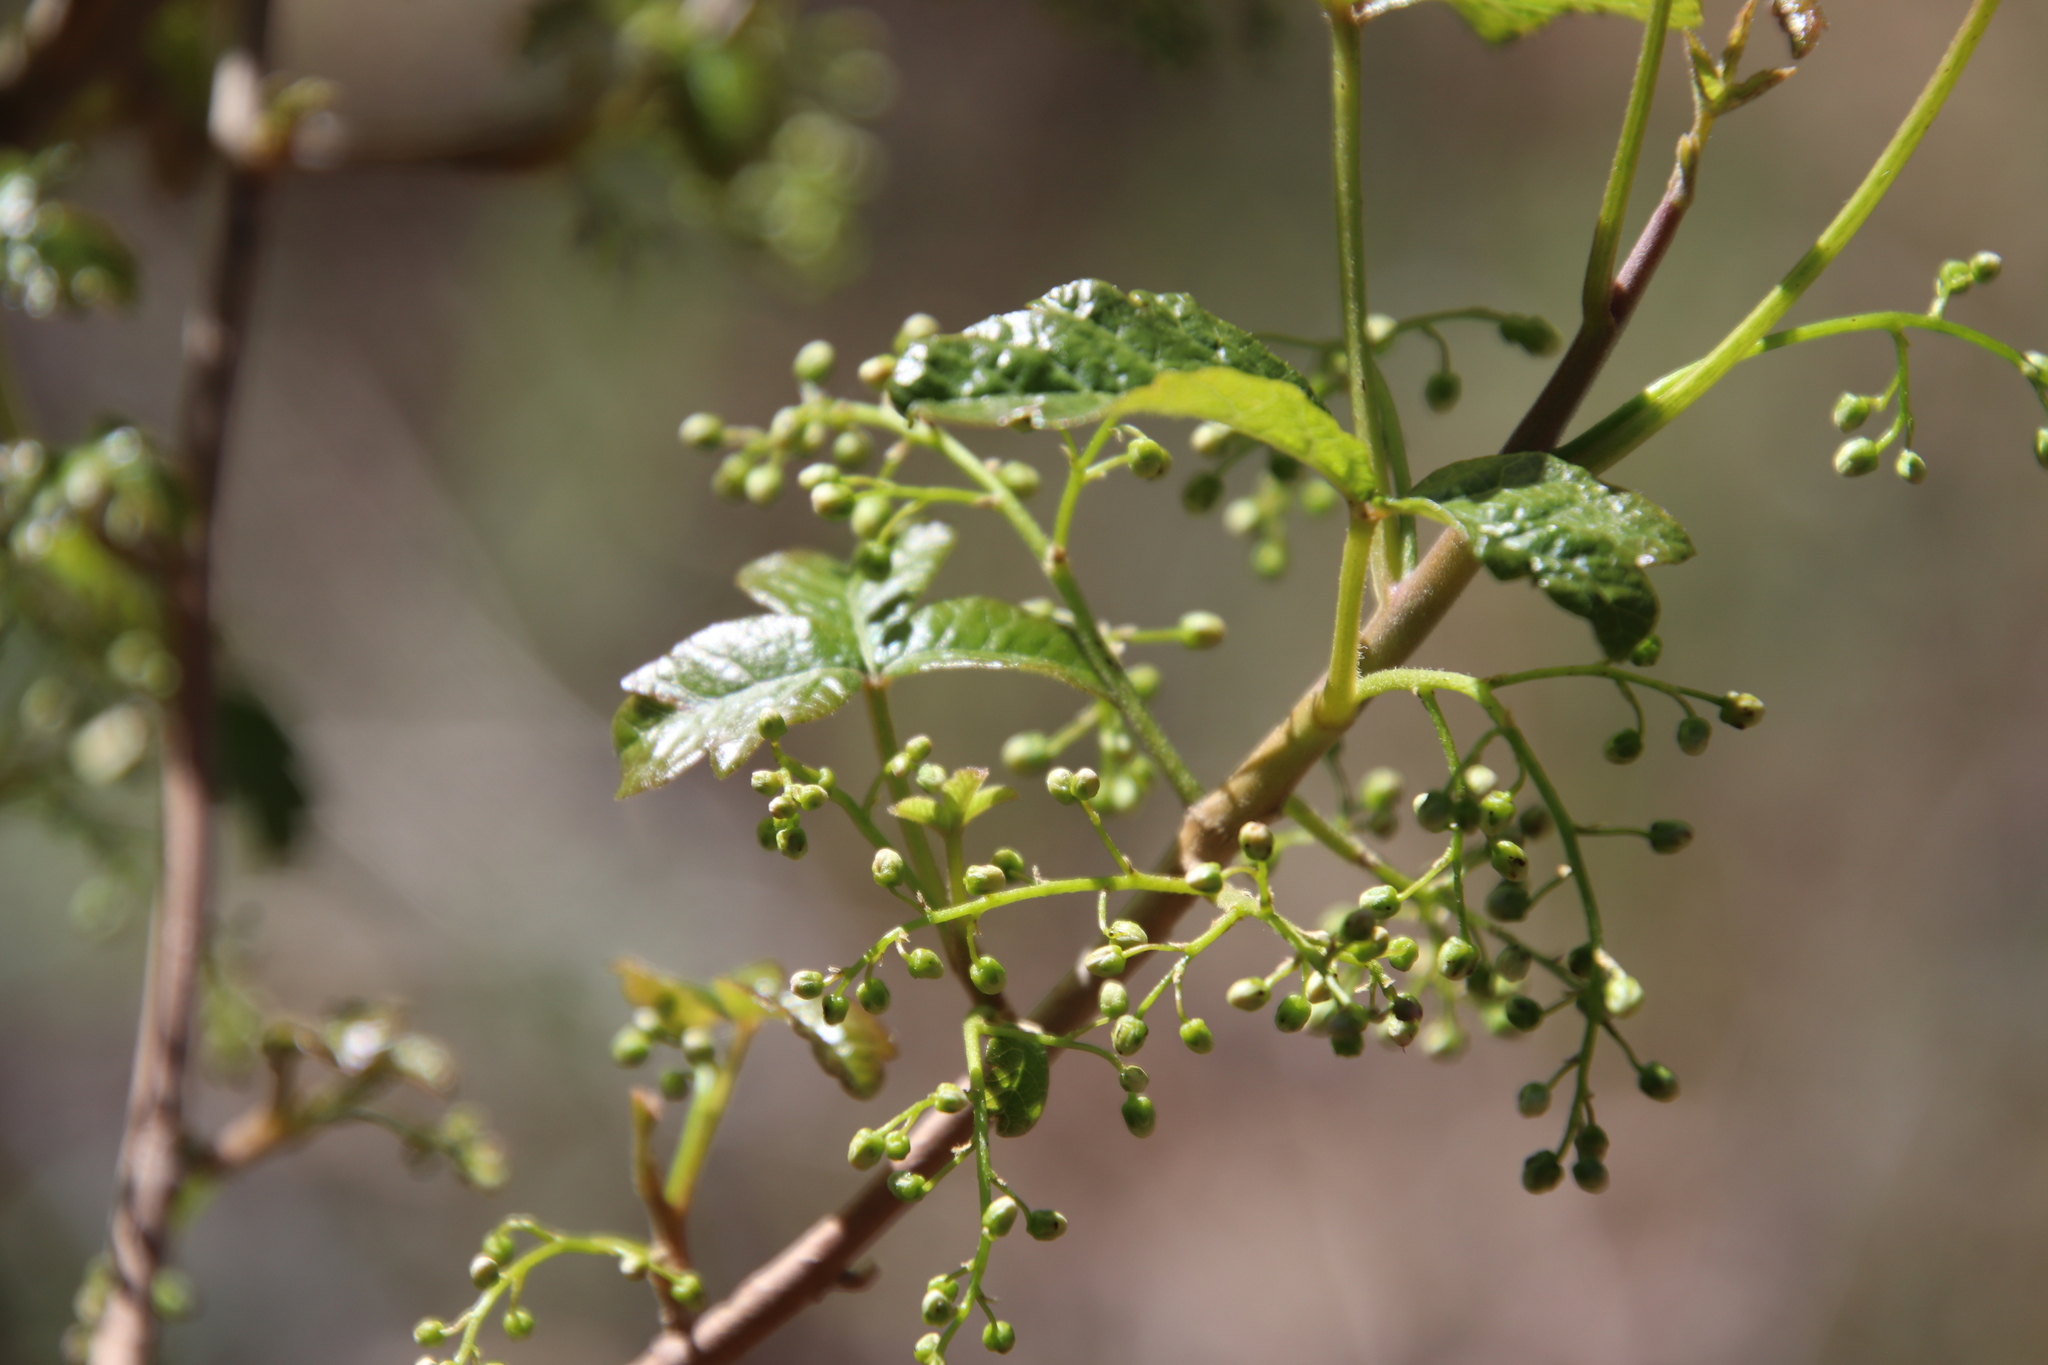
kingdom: Plantae
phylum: Tracheophyta
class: Magnoliopsida
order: Sapindales
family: Anacardiaceae
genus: Toxicodendron
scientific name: Toxicodendron diversilobum
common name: Pacific poison-oak
